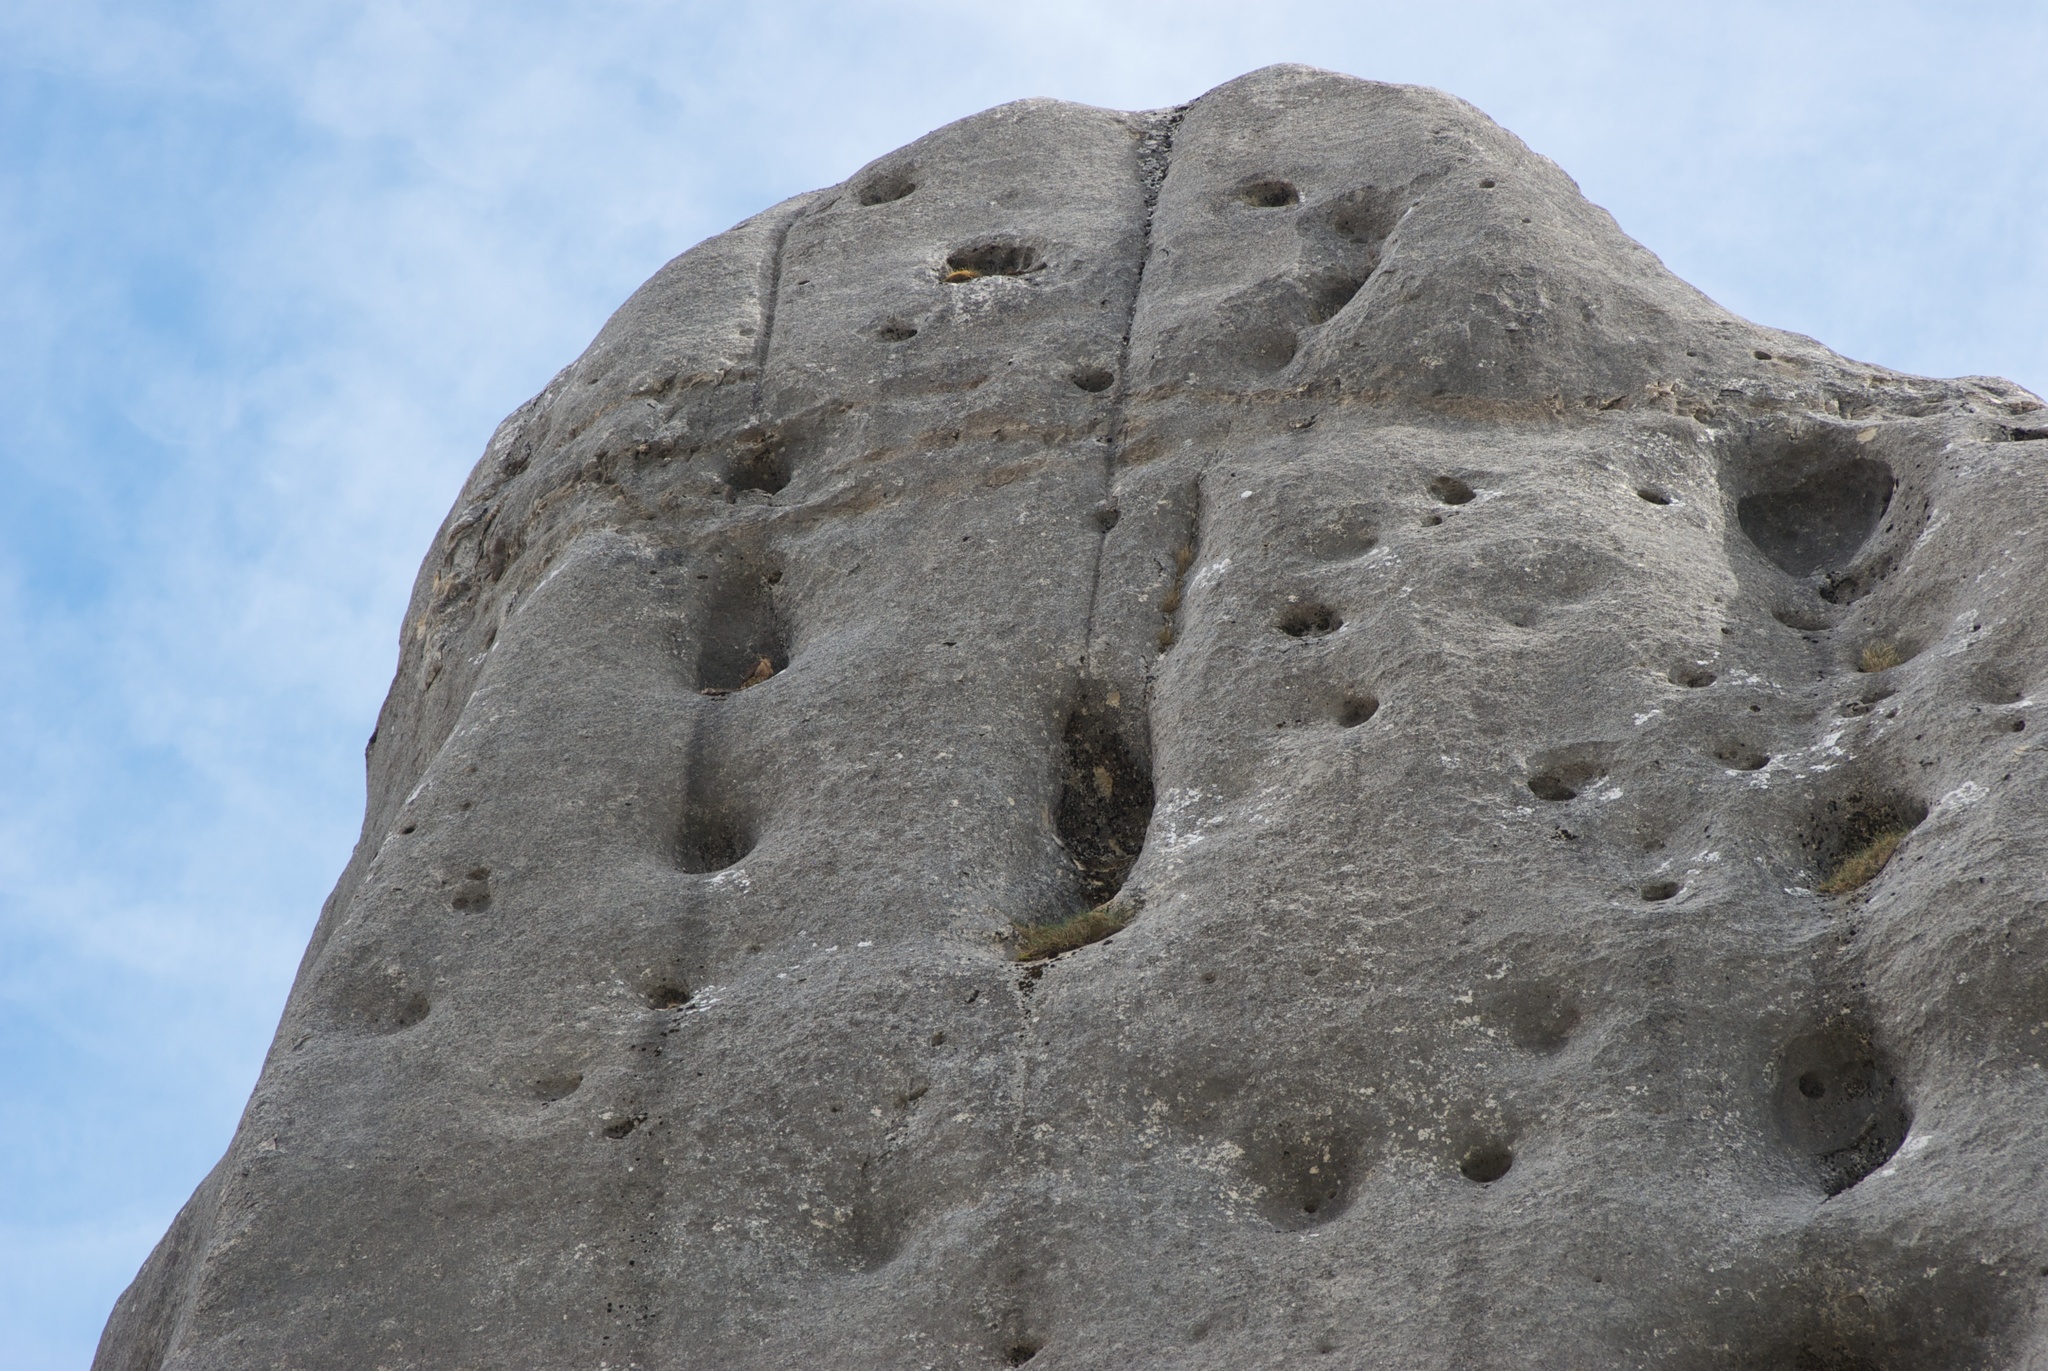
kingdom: Animalia
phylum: Chordata
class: Aves
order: Falconiformes
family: Falconidae
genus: Falco
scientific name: Falco novaeseelandiae
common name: New zealand falcon
